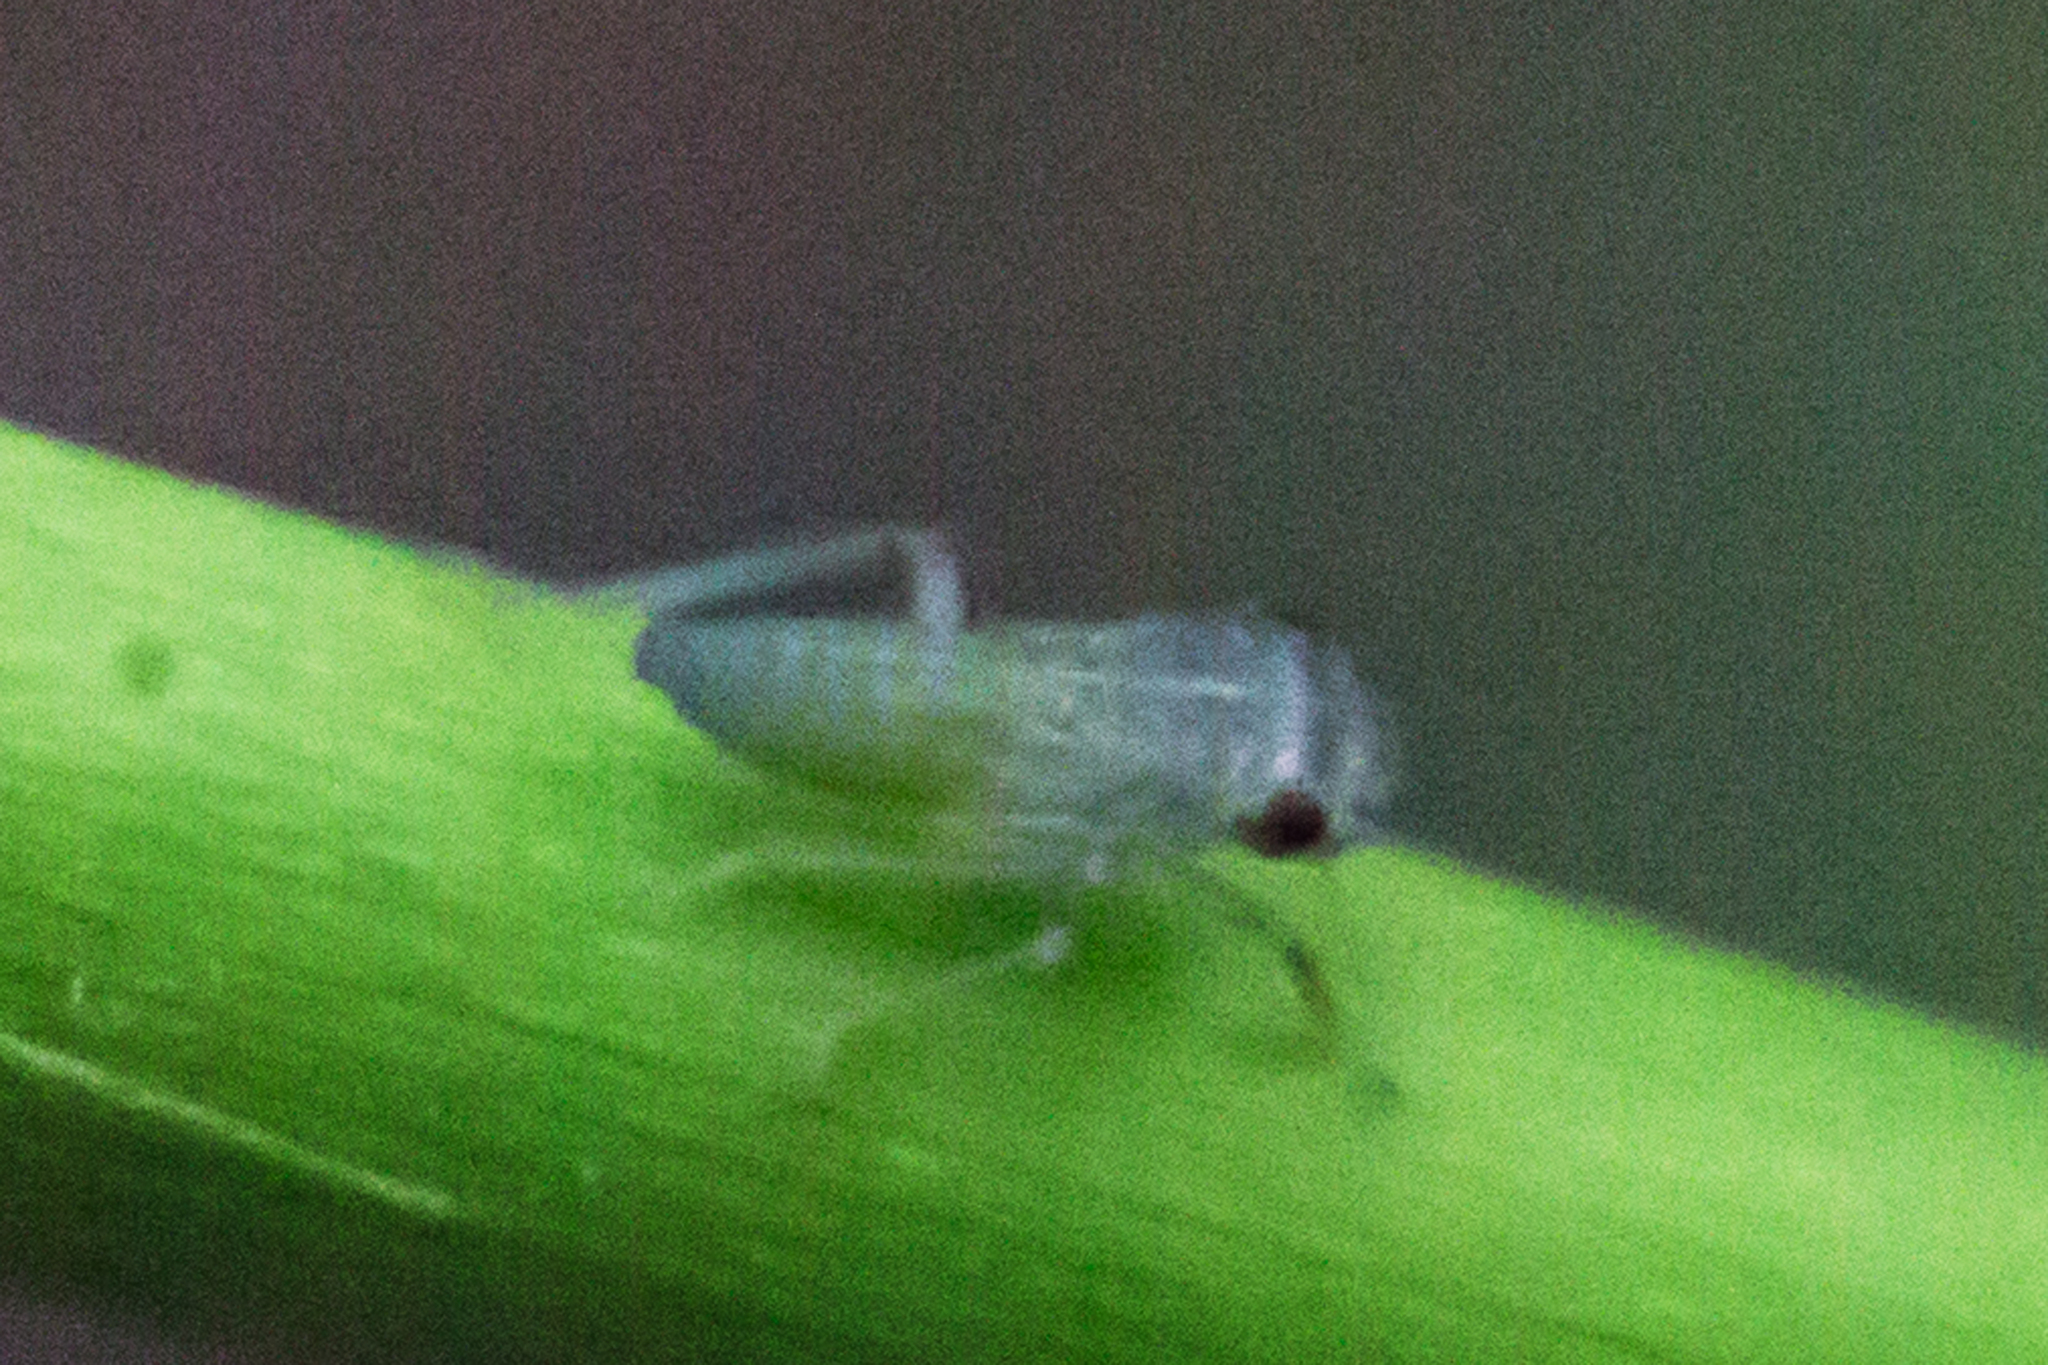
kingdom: Animalia
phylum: Arthropoda
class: Insecta
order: Hemiptera
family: Cicadellidae
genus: Oncometopia
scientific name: Oncometopia orbona
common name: Broad-headed sharpshooter
